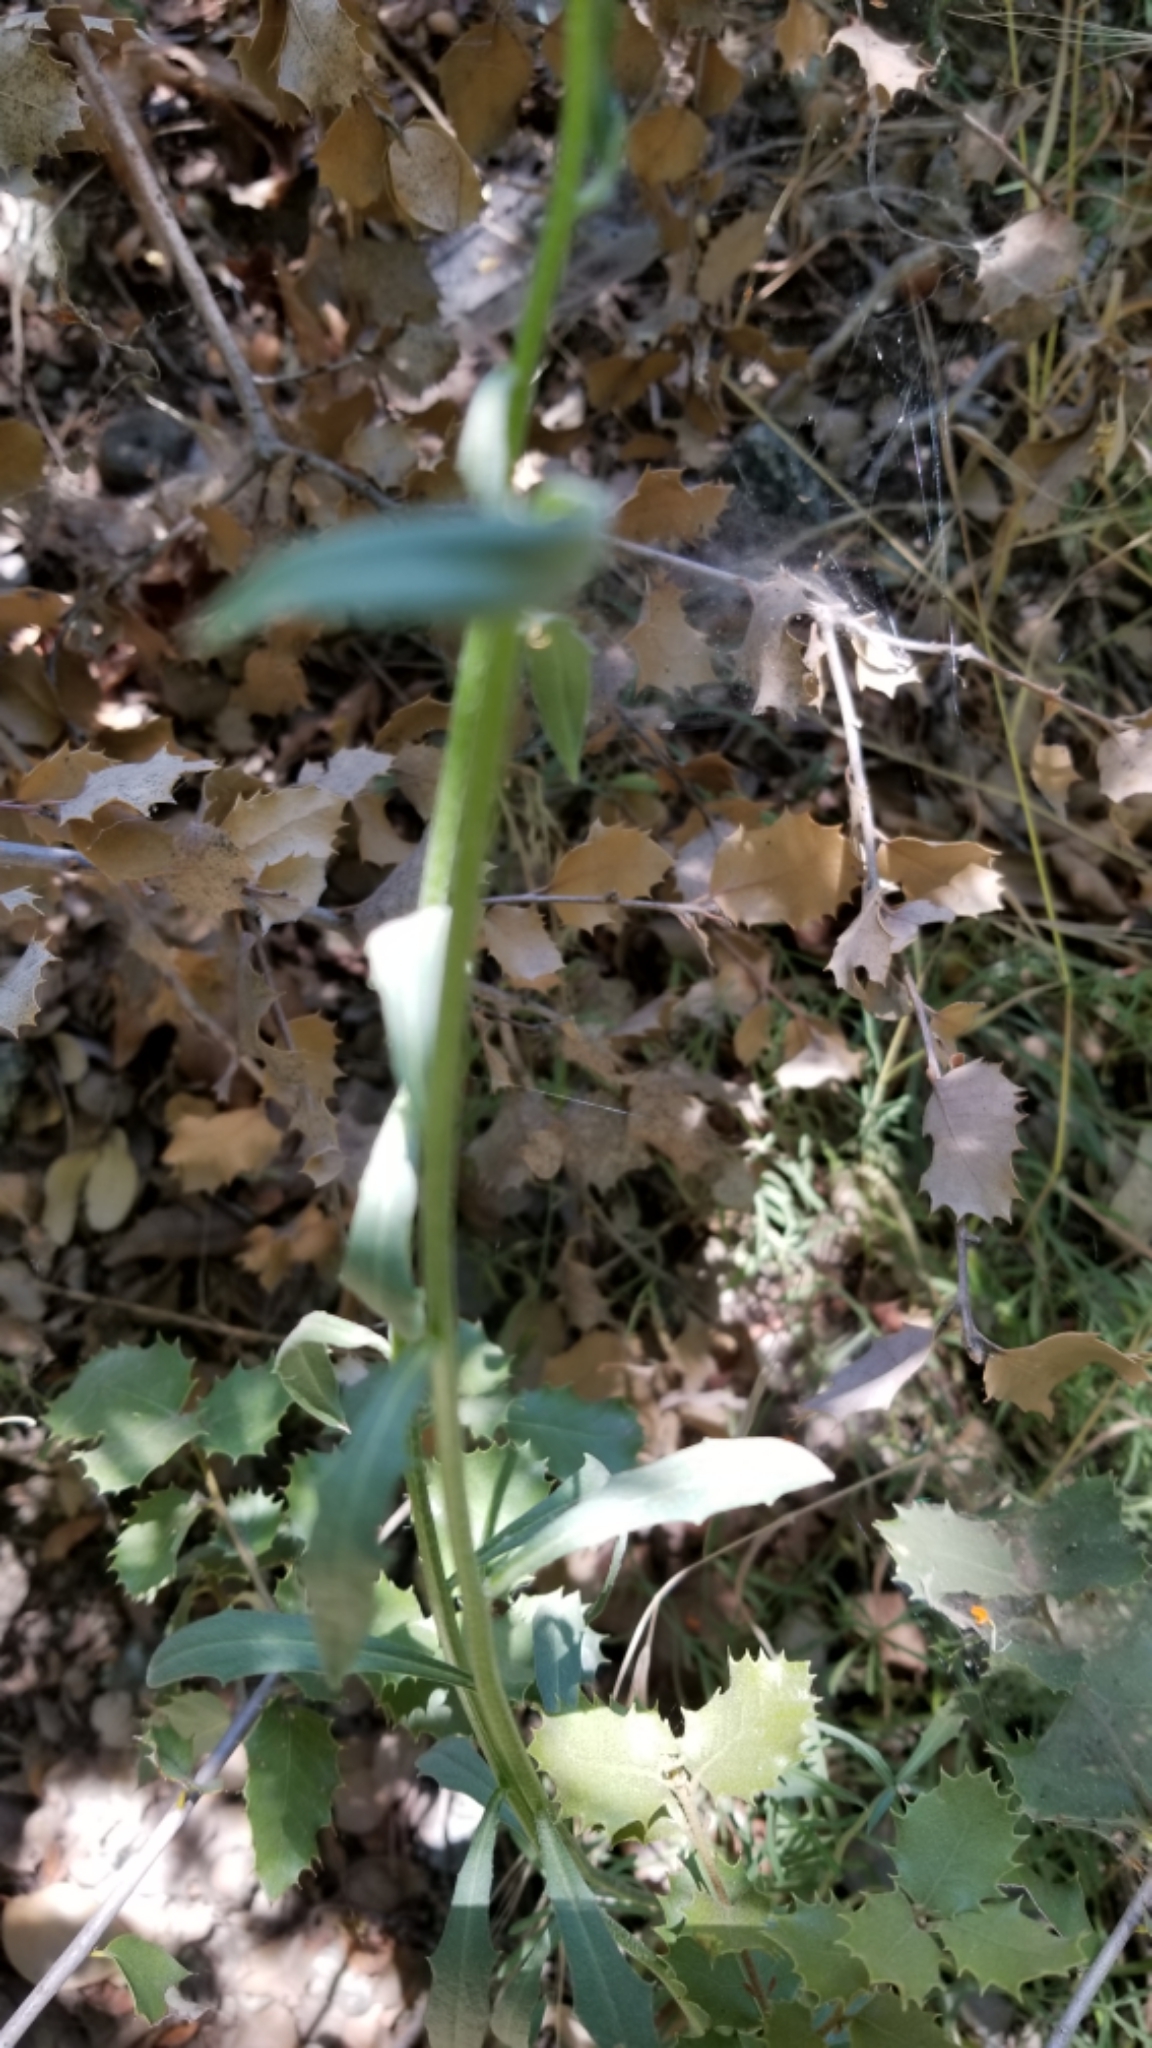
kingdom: Plantae
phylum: Tracheophyta
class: Magnoliopsida
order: Brassicales
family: Brassicaceae
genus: Erysimum
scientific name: Erysimum capitatum
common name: Western wallflower
